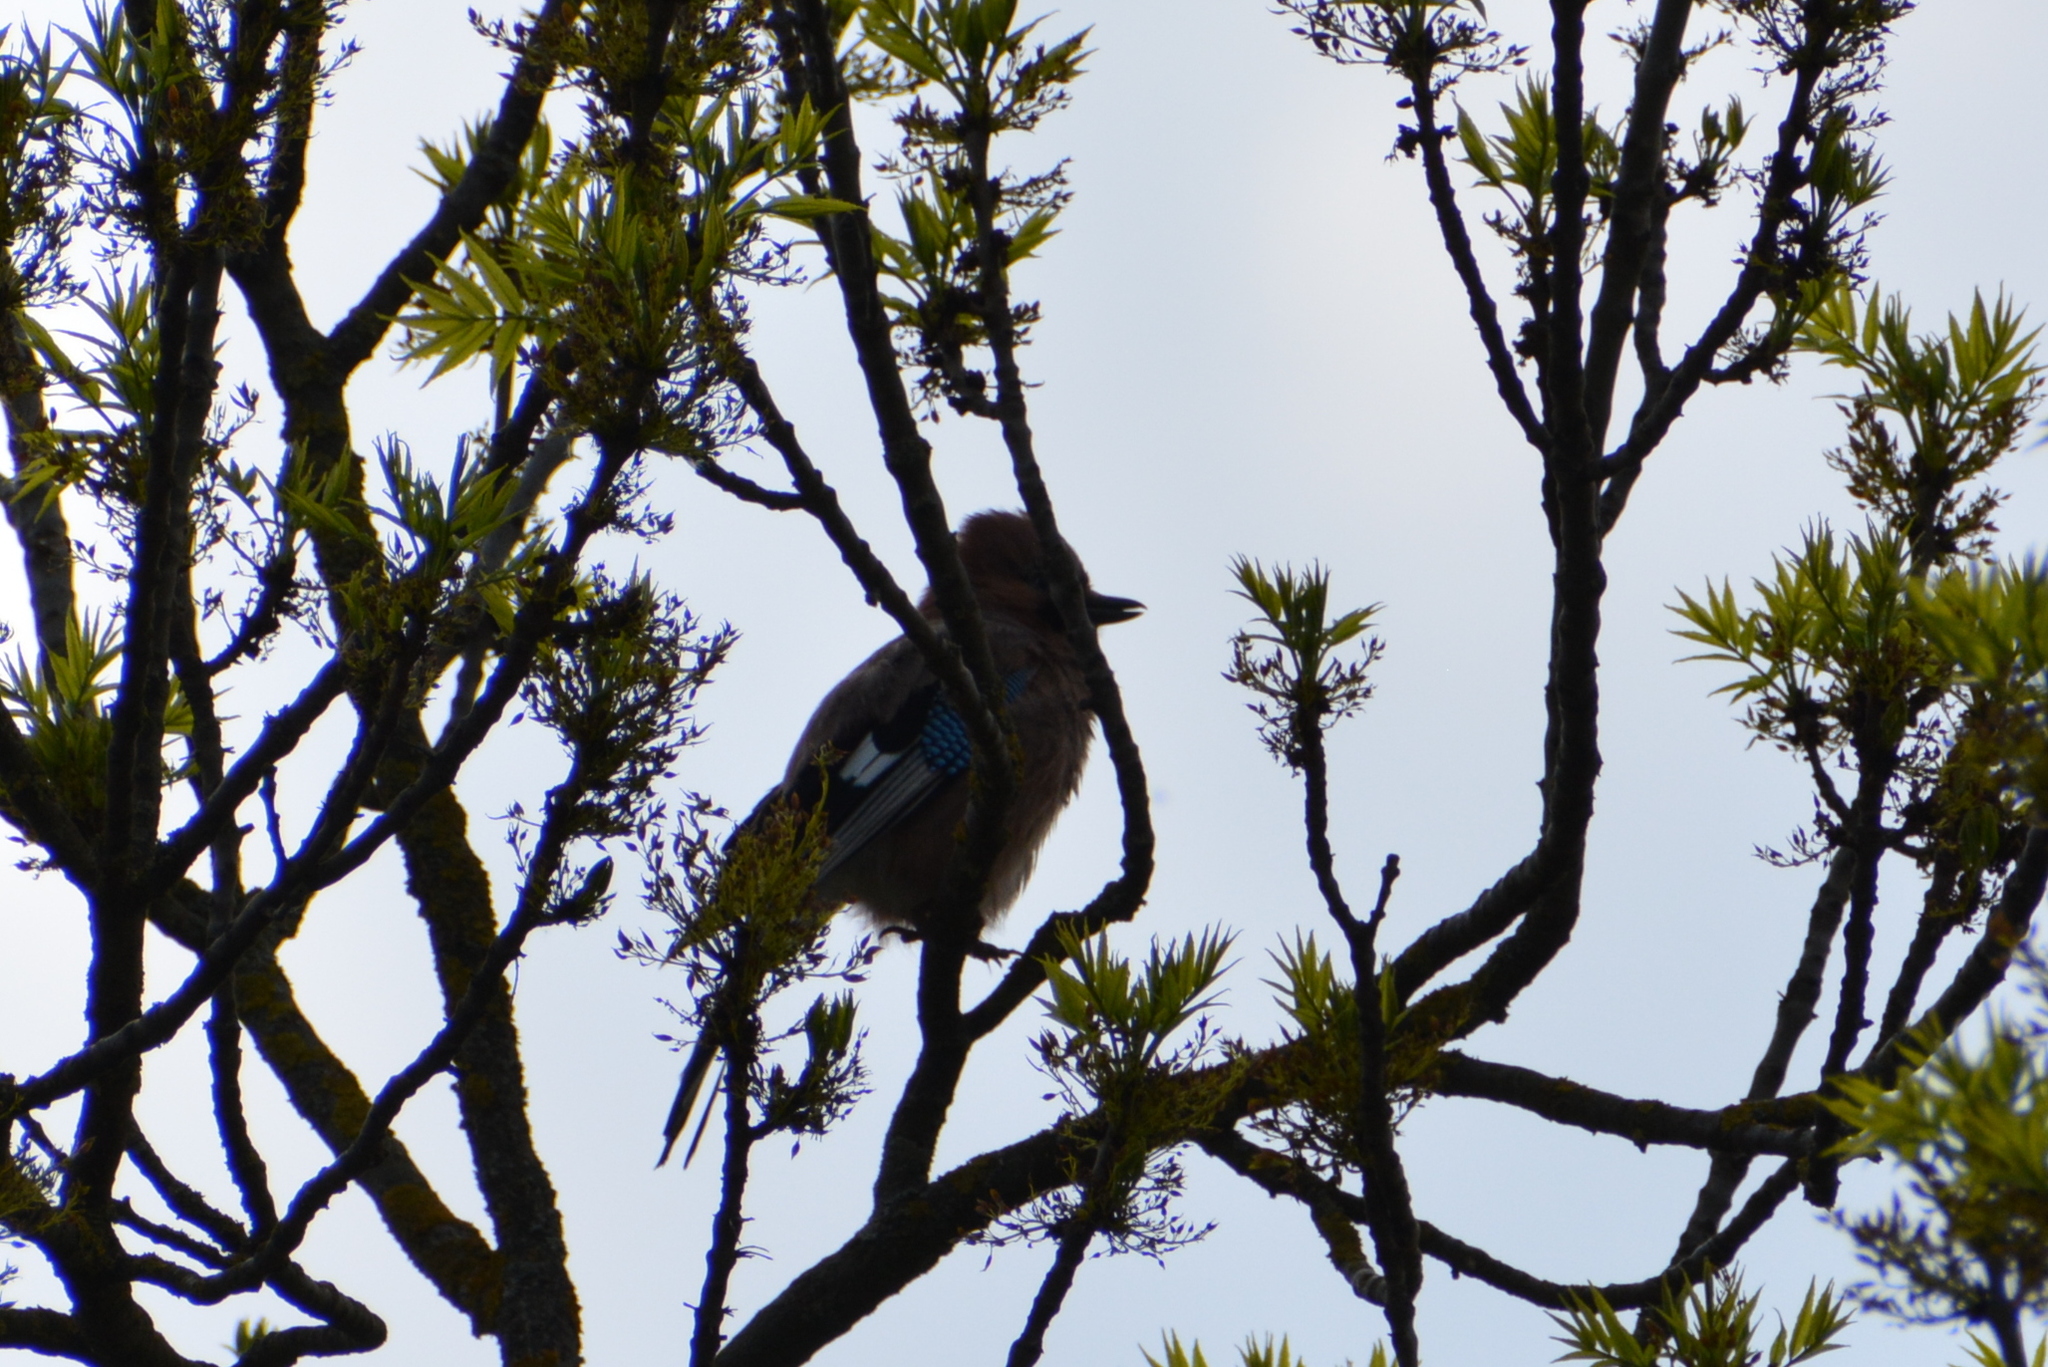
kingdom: Animalia
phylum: Chordata
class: Aves
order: Passeriformes
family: Corvidae
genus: Garrulus
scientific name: Garrulus glandarius
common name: Eurasian jay
